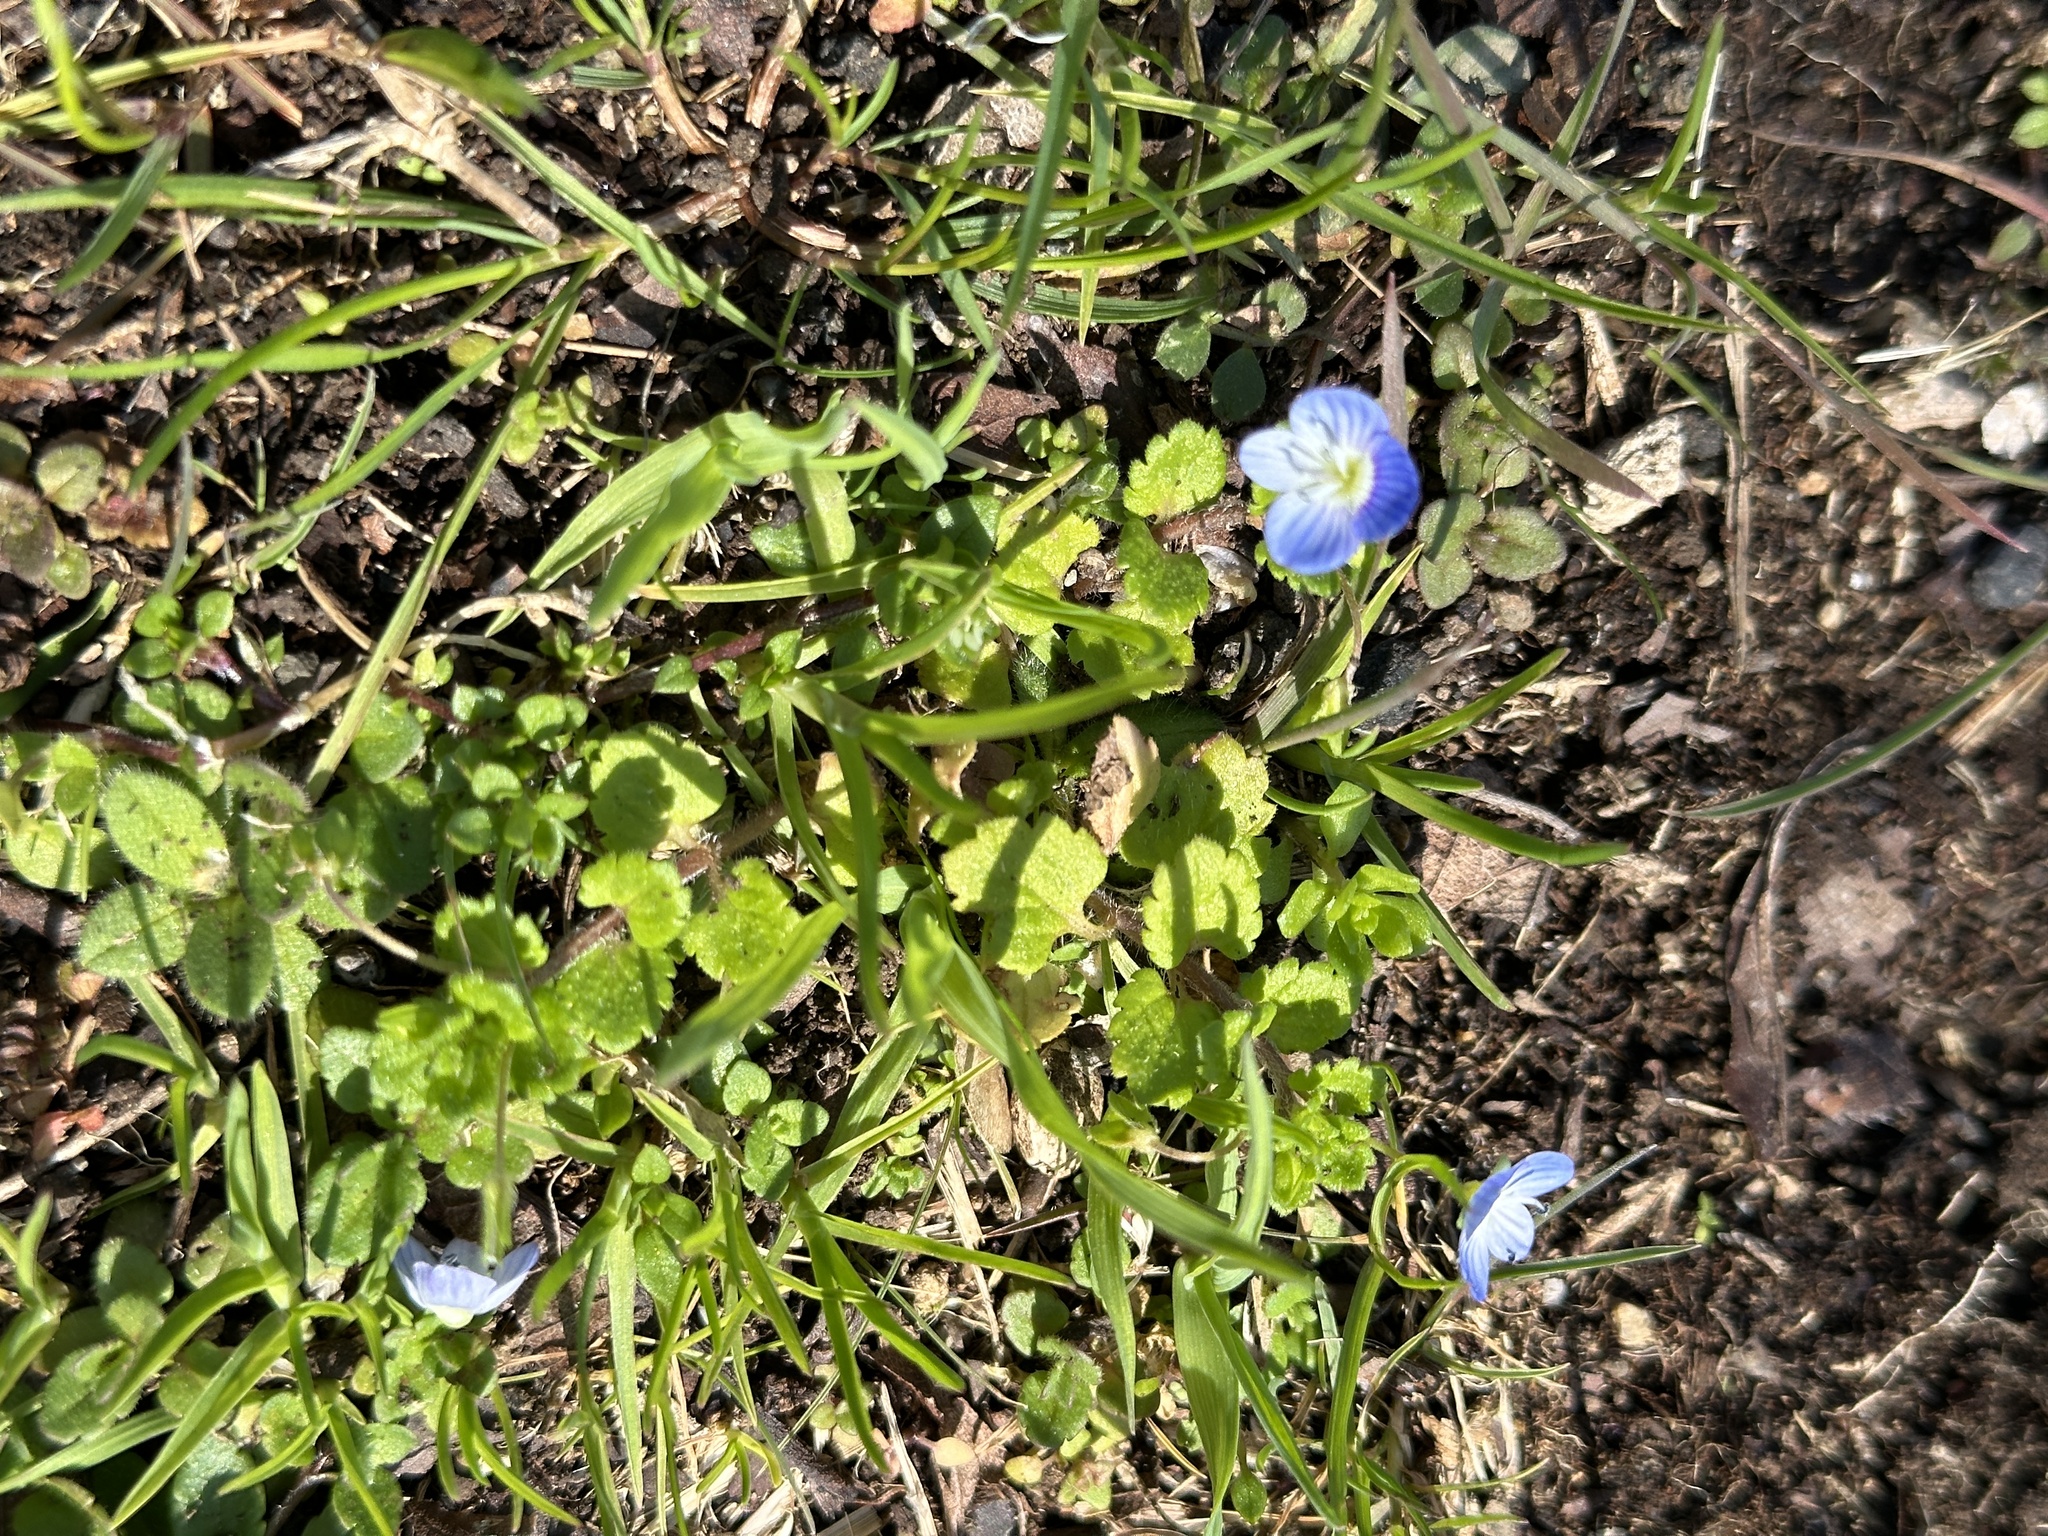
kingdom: Plantae
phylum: Tracheophyta
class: Magnoliopsida
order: Lamiales
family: Plantaginaceae
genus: Veronica
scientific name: Veronica persica
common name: Common field-speedwell
